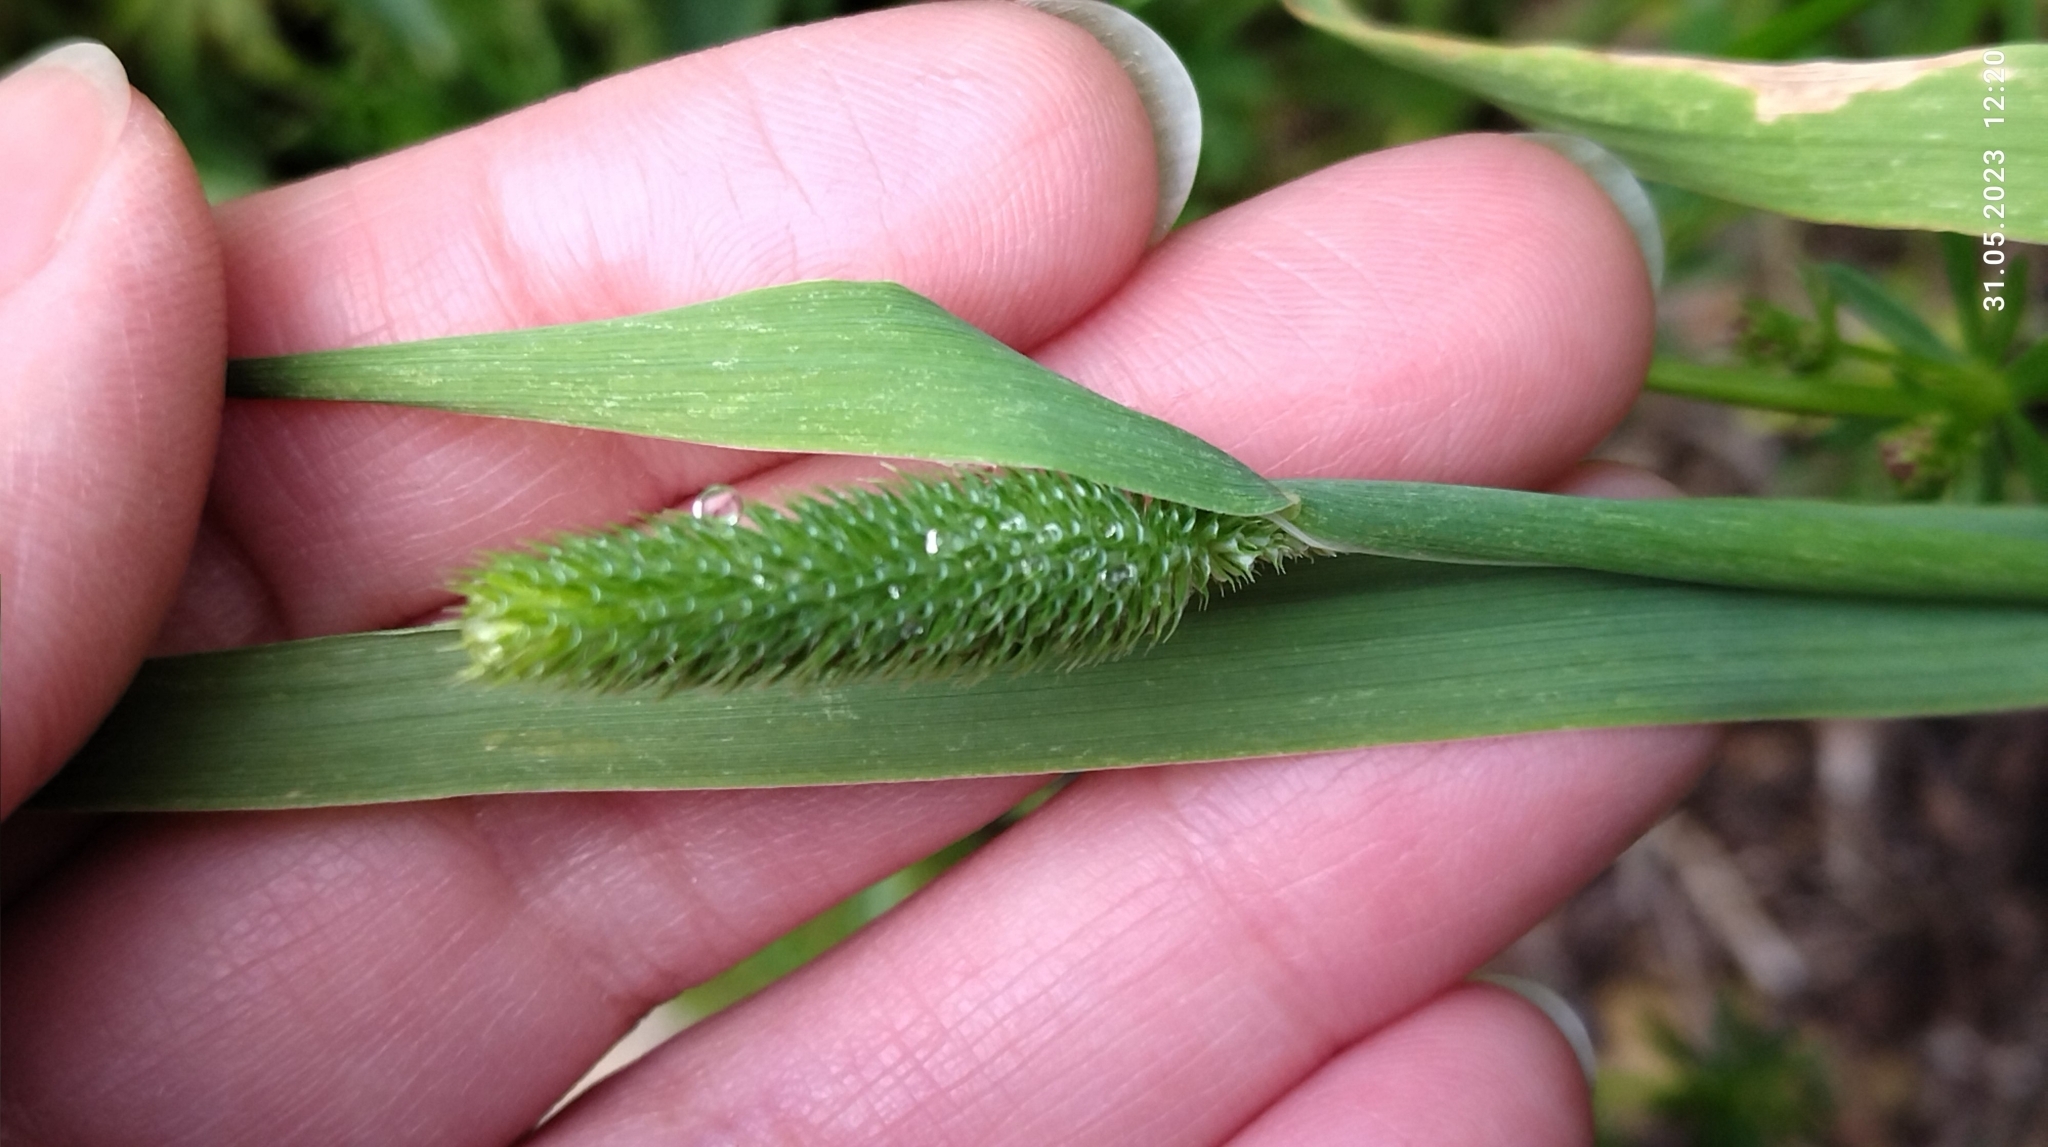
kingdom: Plantae
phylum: Tracheophyta
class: Liliopsida
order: Poales
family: Poaceae
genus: Phleum
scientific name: Phleum pratense
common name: Timothy grass
